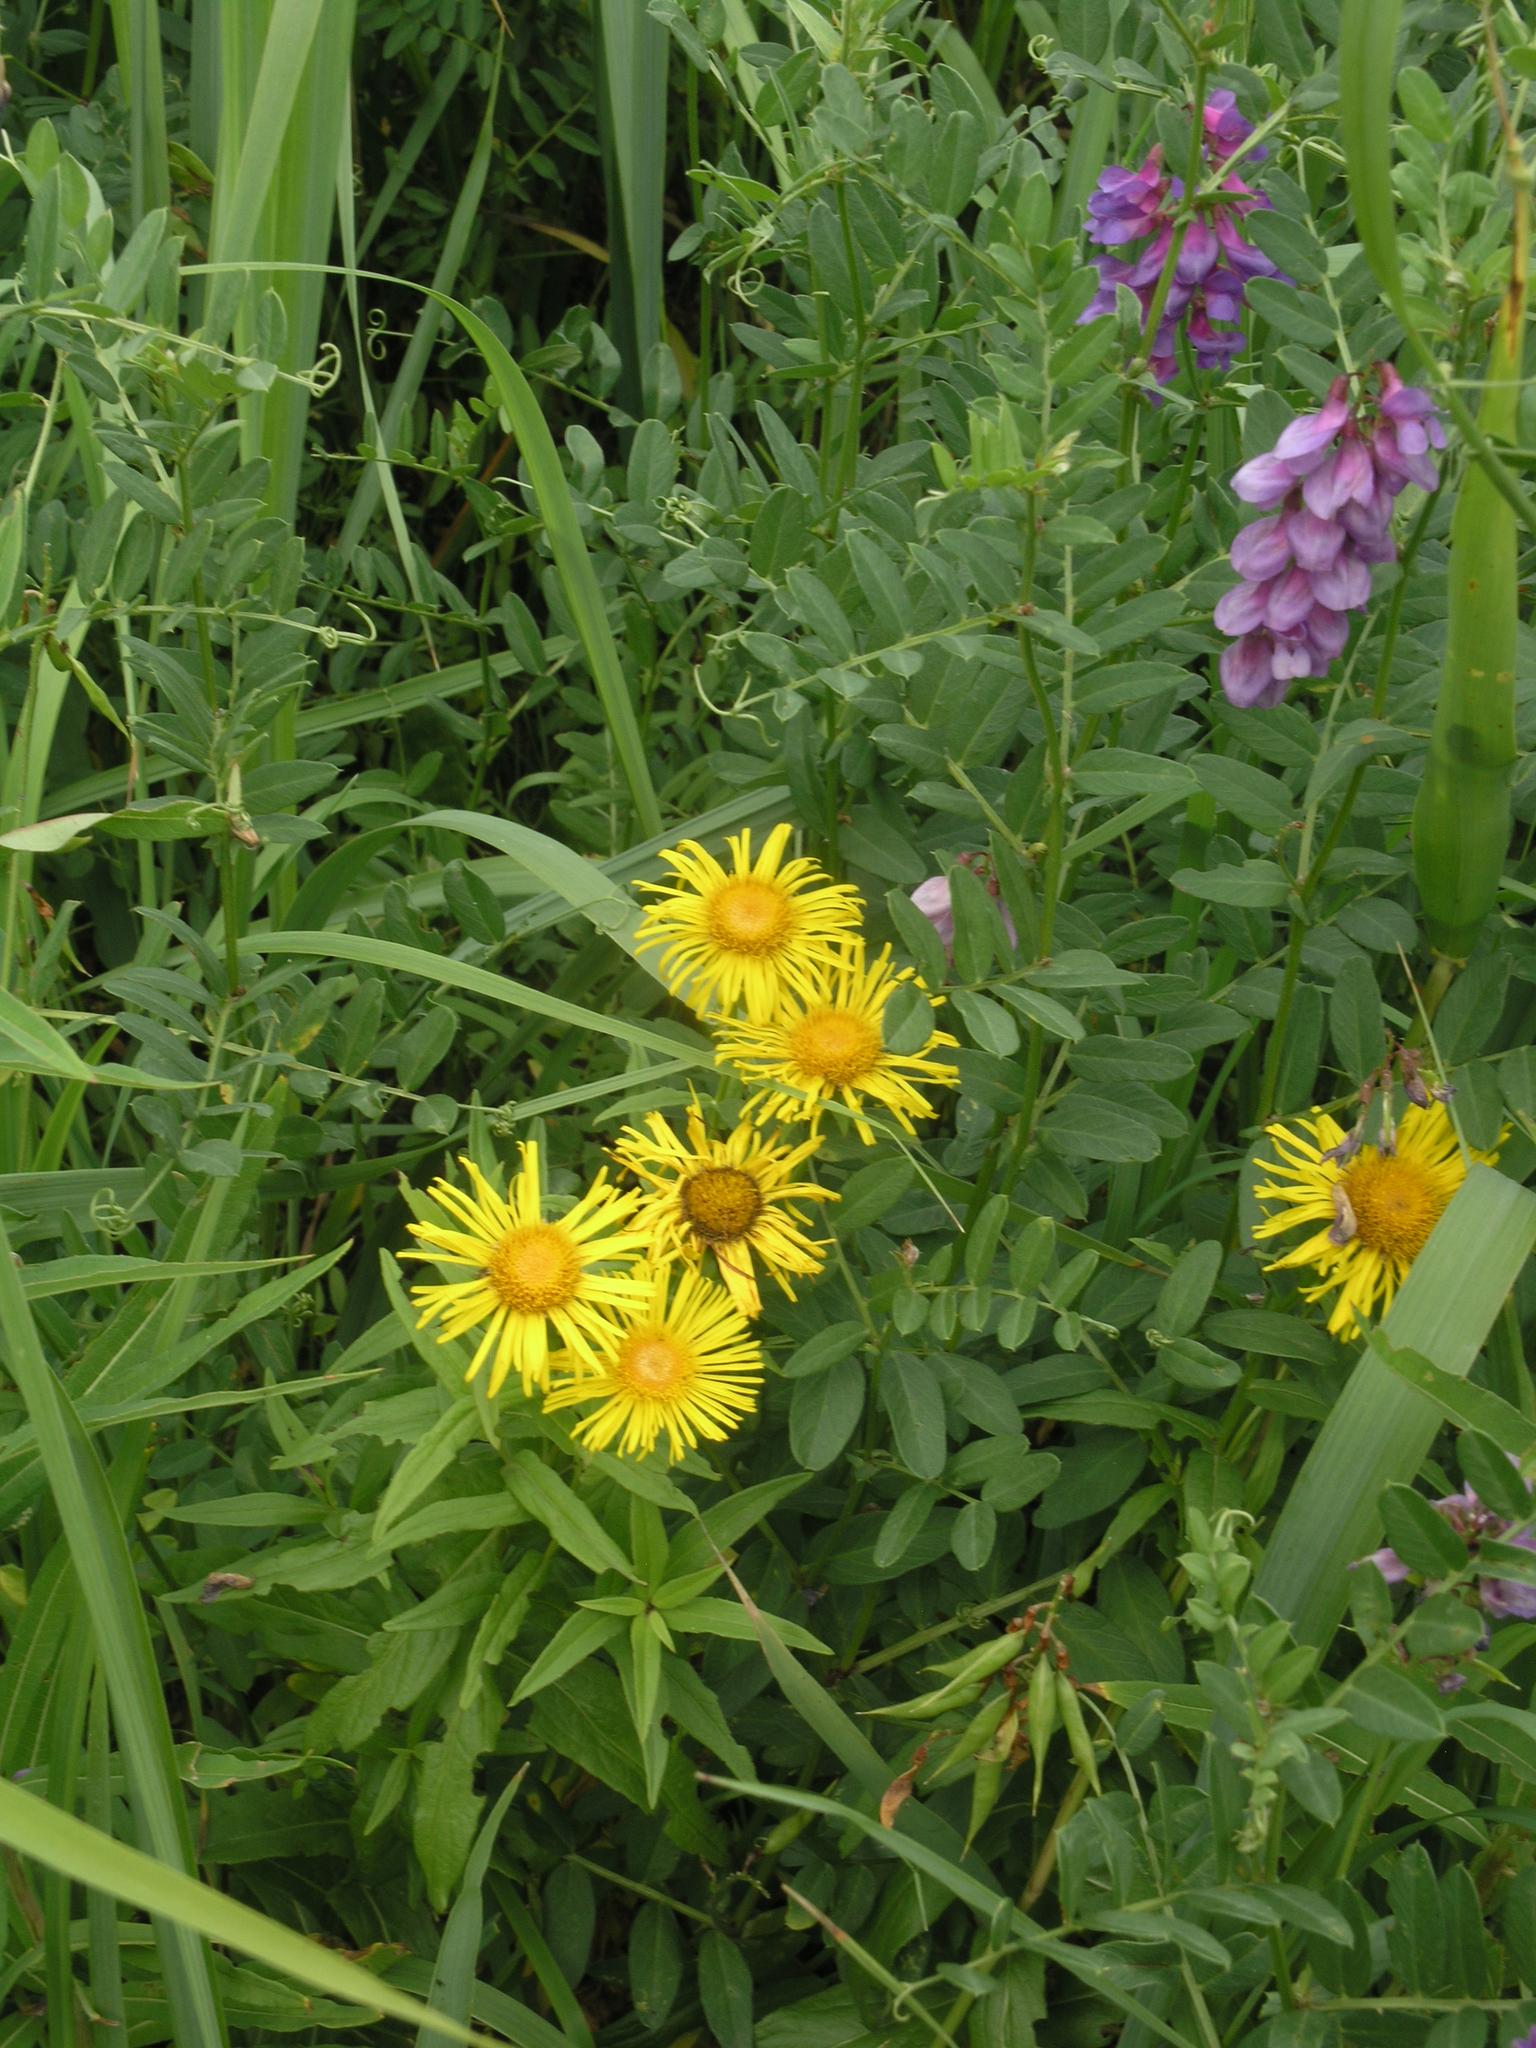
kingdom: Plantae
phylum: Tracheophyta
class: Magnoliopsida
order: Asterales
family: Asteraceae
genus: Pentanema
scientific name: Pentanema salicinum
